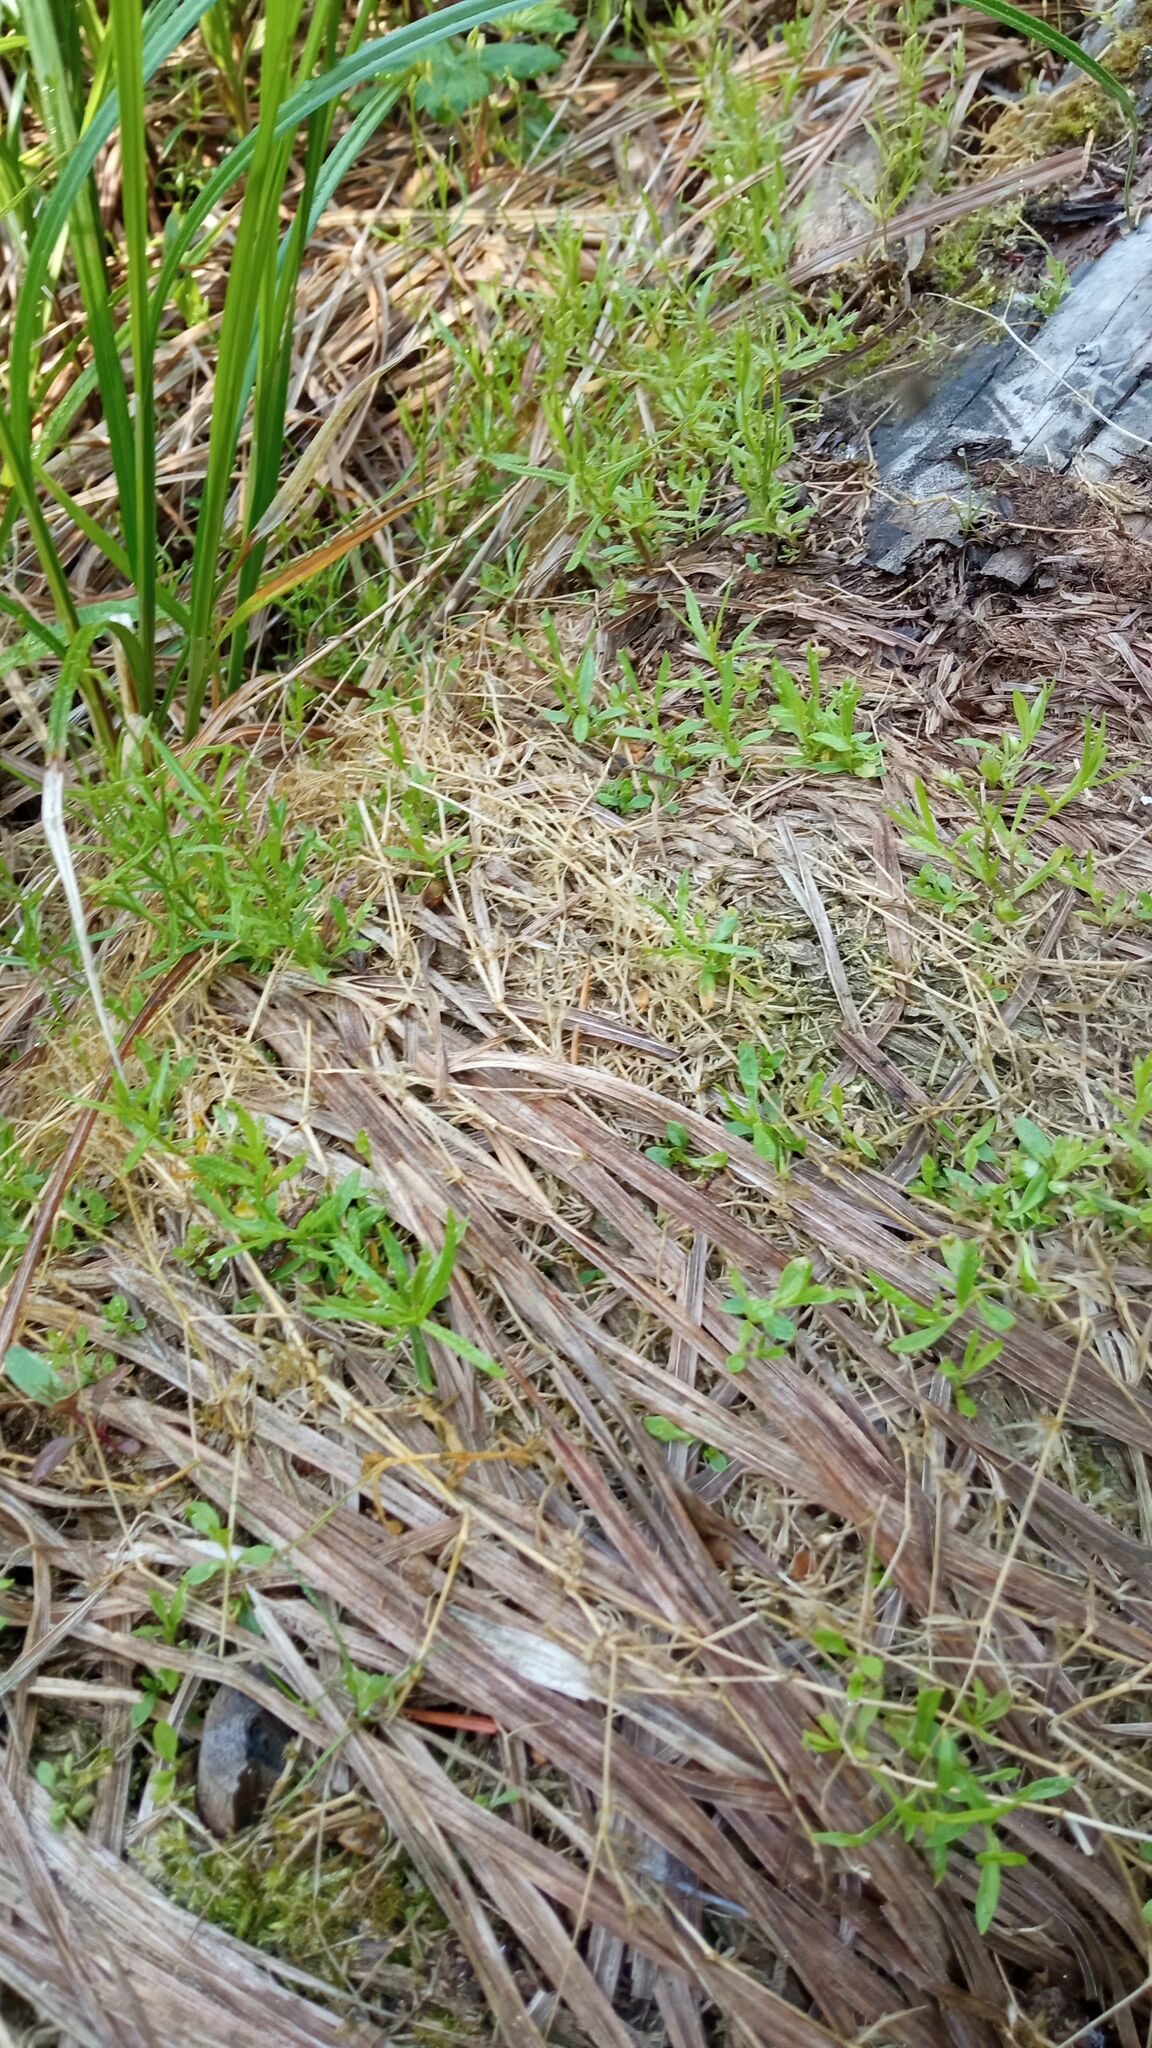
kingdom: Plantae
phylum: Tracheophyta
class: Magnoliopsida
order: Caryophyllales
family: Caryophyllaceae
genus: Stellaria
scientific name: Stellaria longifolia
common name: Long-leaved chickweed
